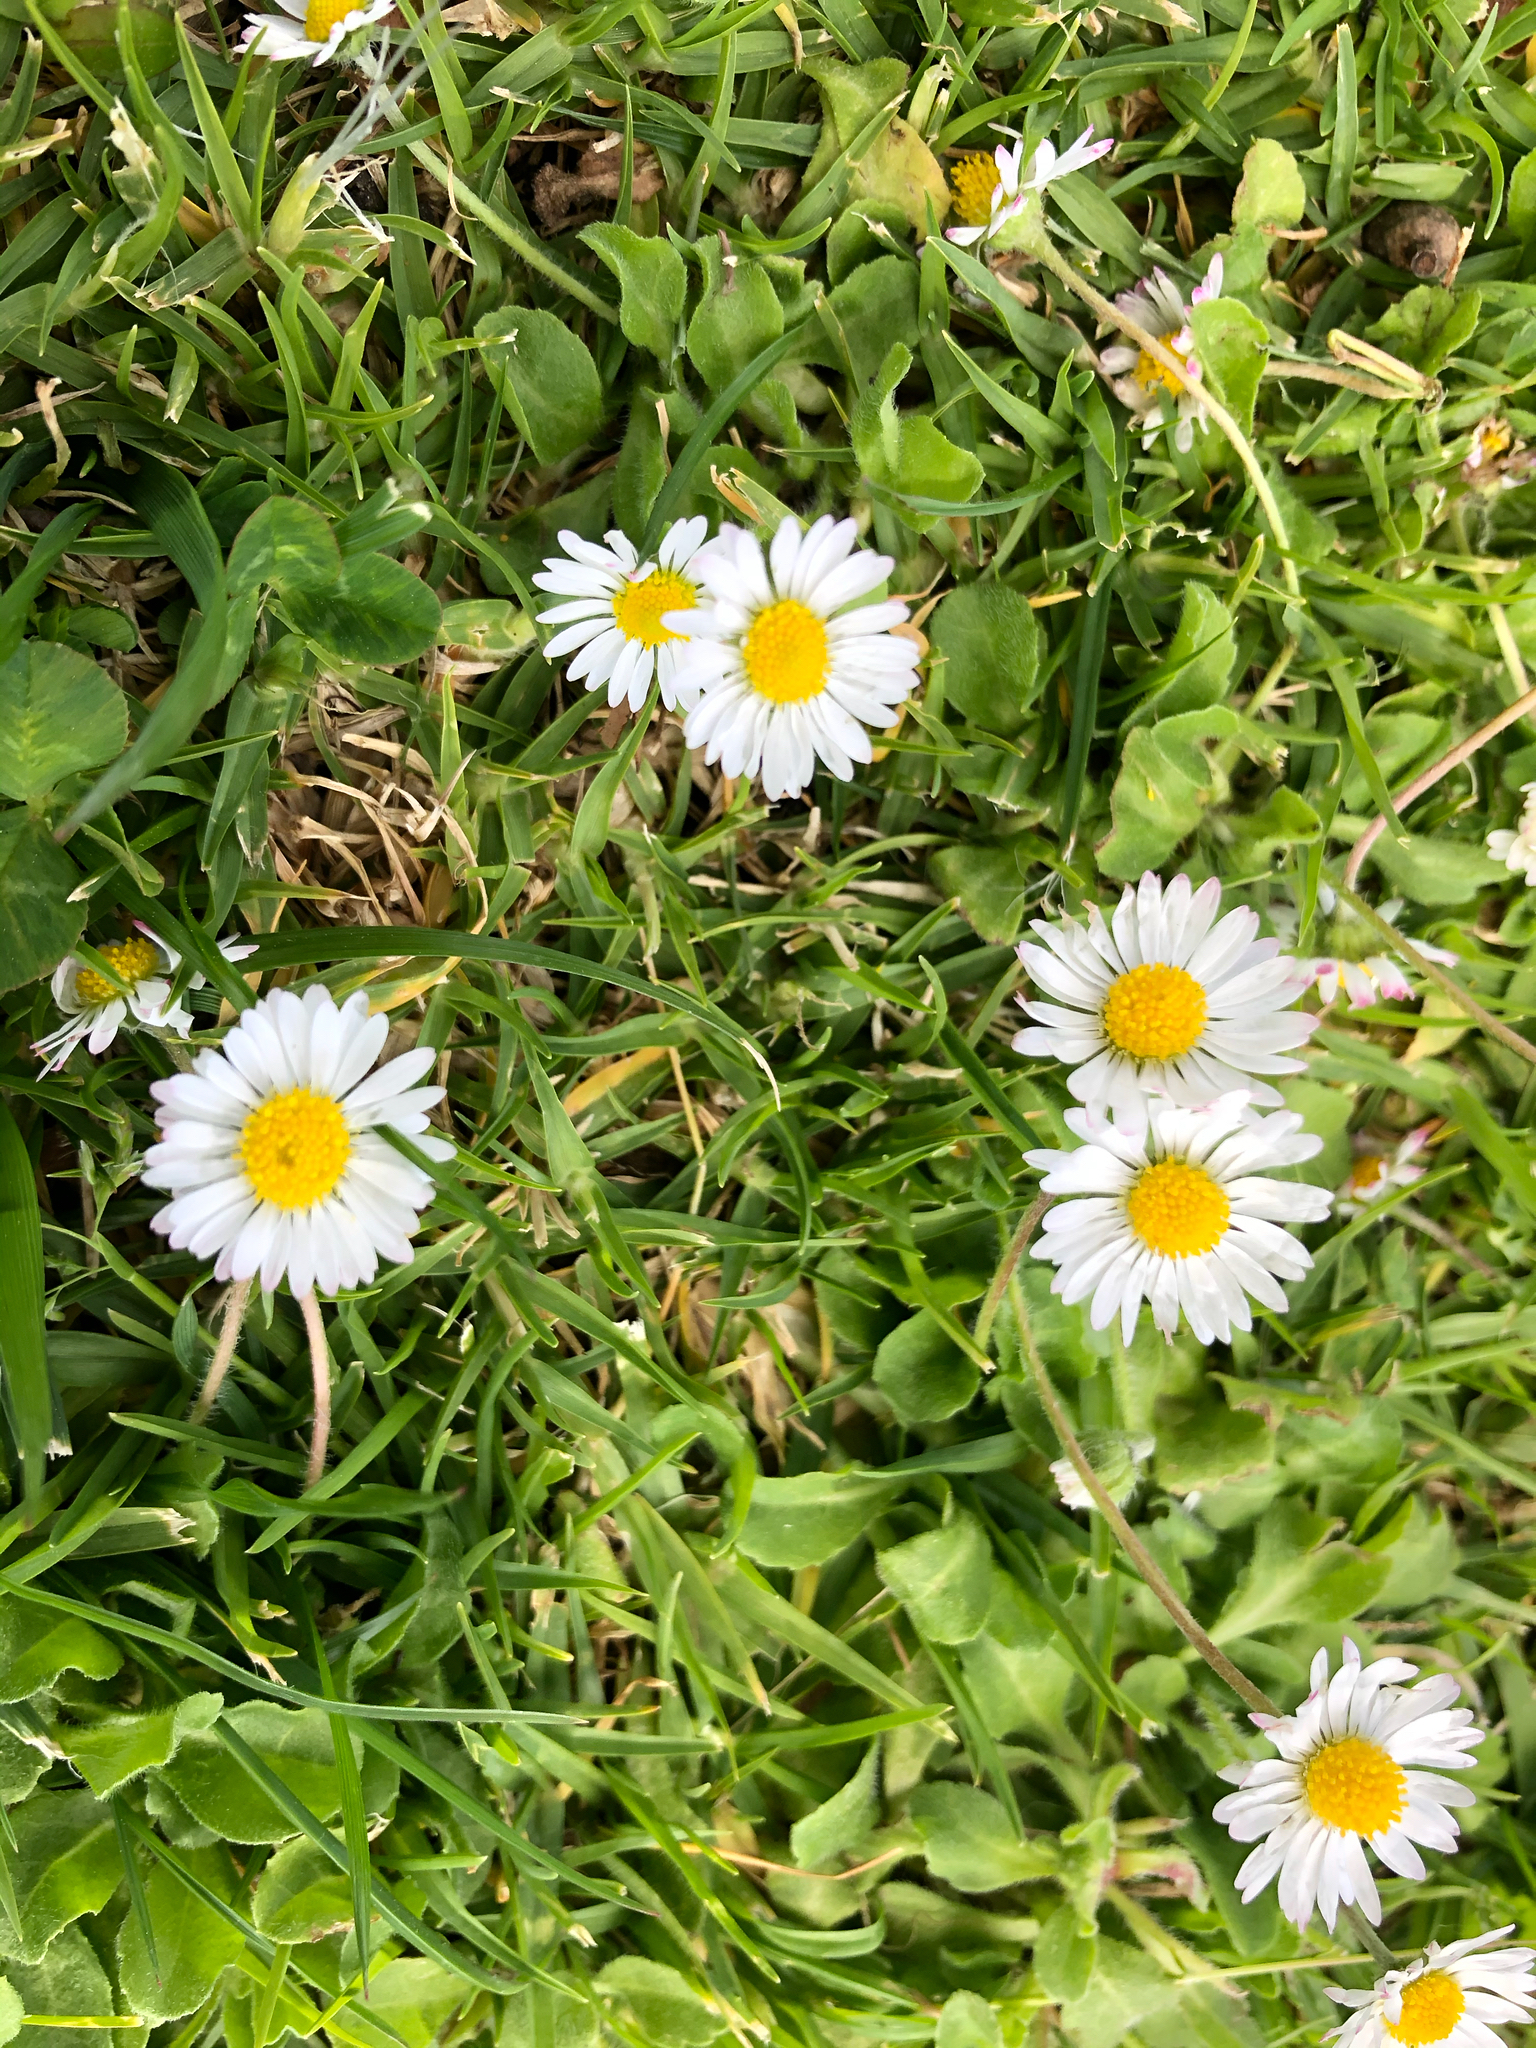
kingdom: Plantae
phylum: Tracheophyta
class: Magnoliopsida
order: Asterales
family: Asteraceae
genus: Bellis
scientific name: Bellis perennis
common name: Lawndaisy
